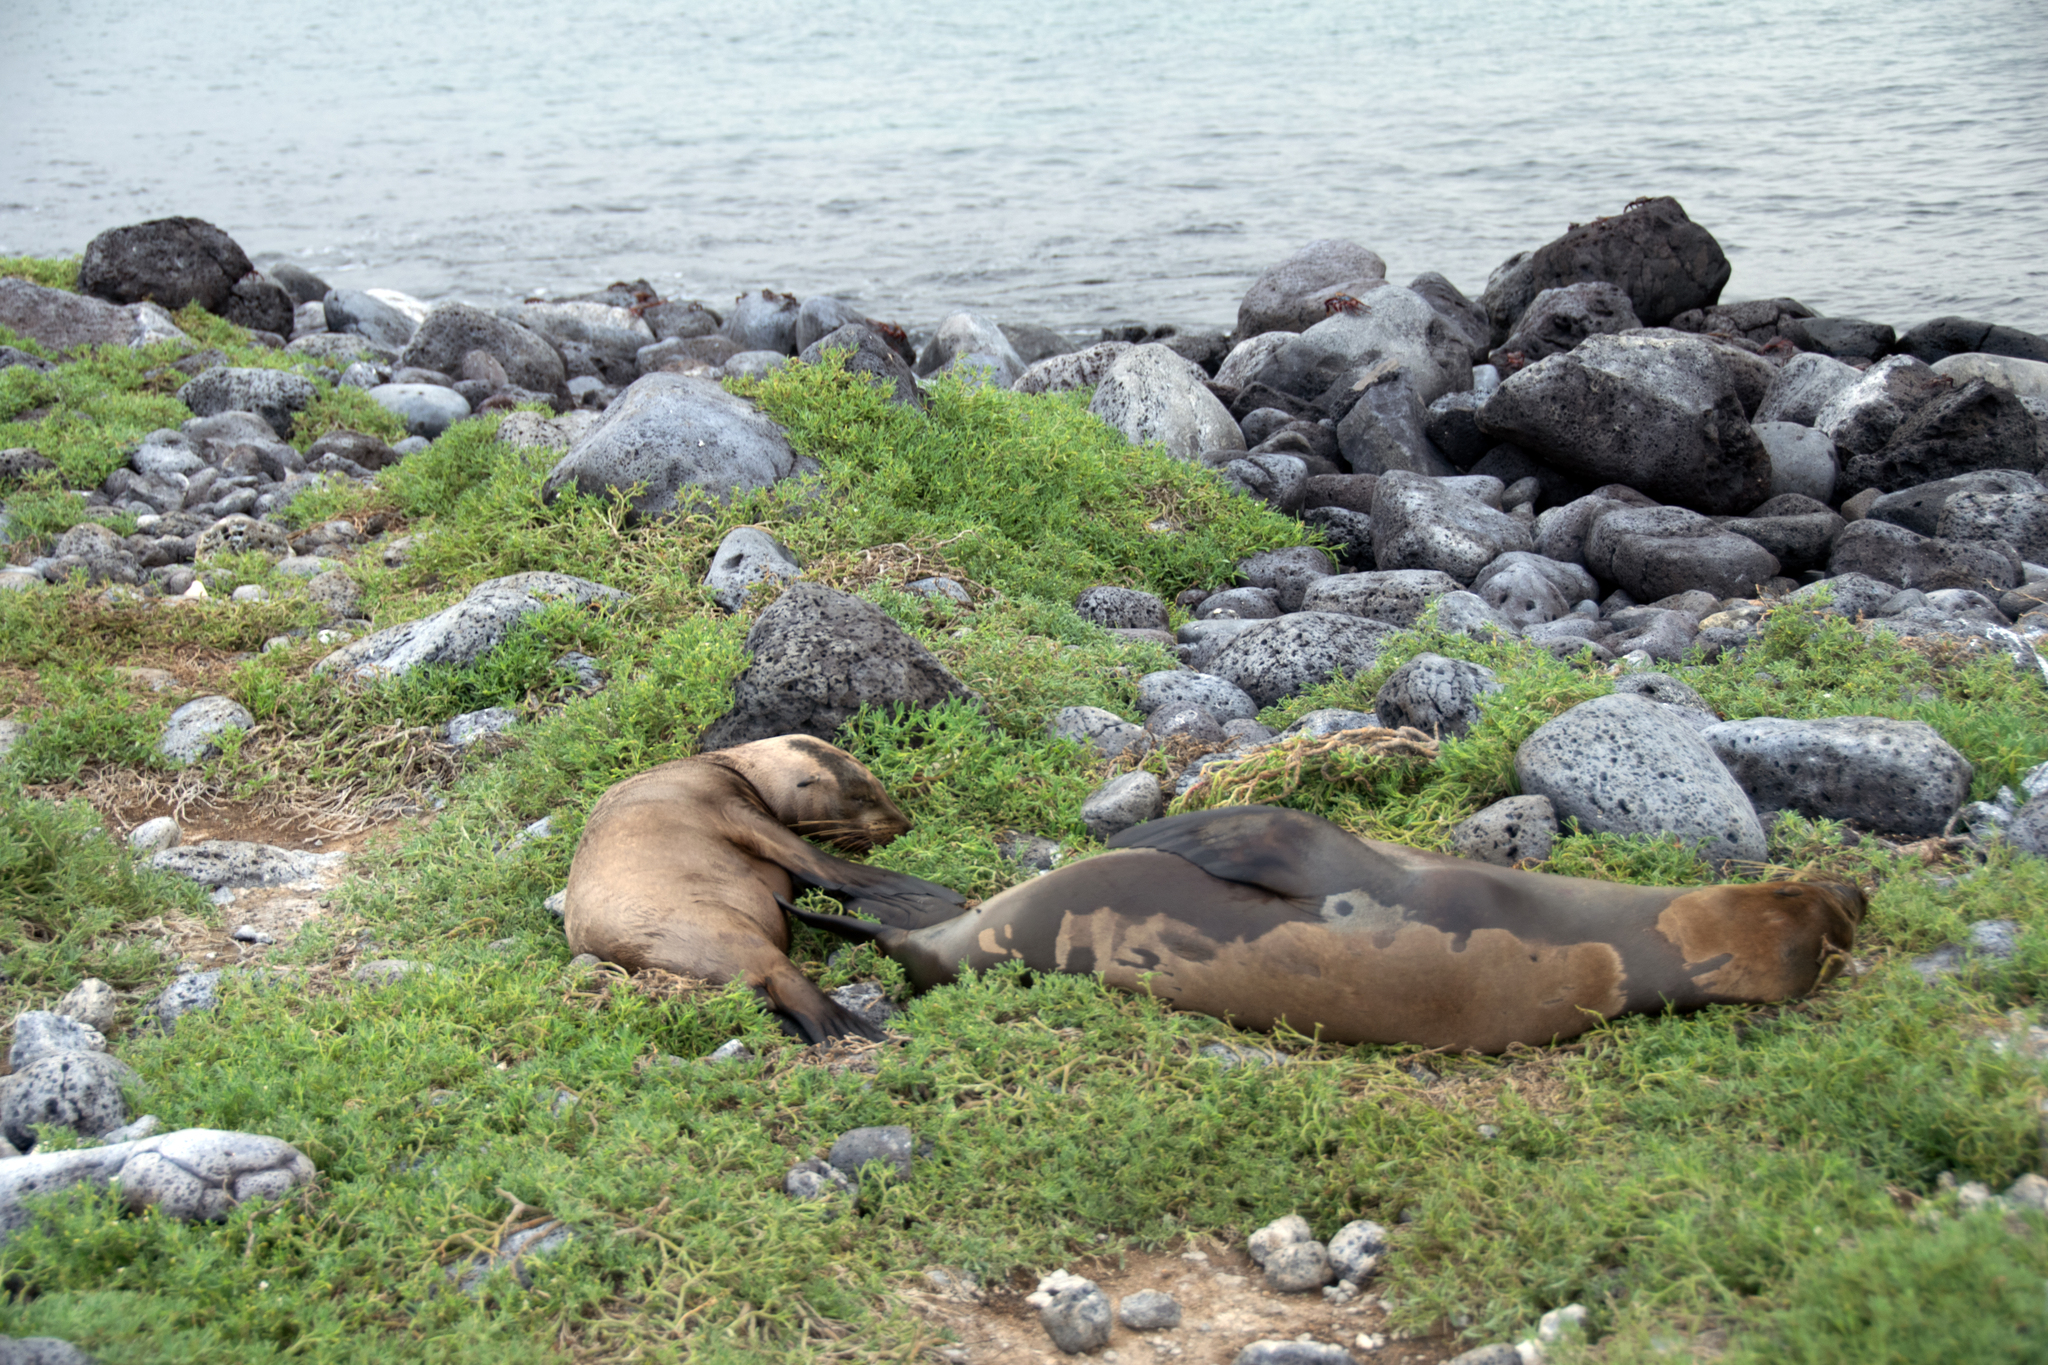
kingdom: Animalia
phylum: Chordata
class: Mammalia
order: Carnivora
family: Otariidae
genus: Zalophus
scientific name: Zalophus wollebaeki
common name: Galapagos sea lion
